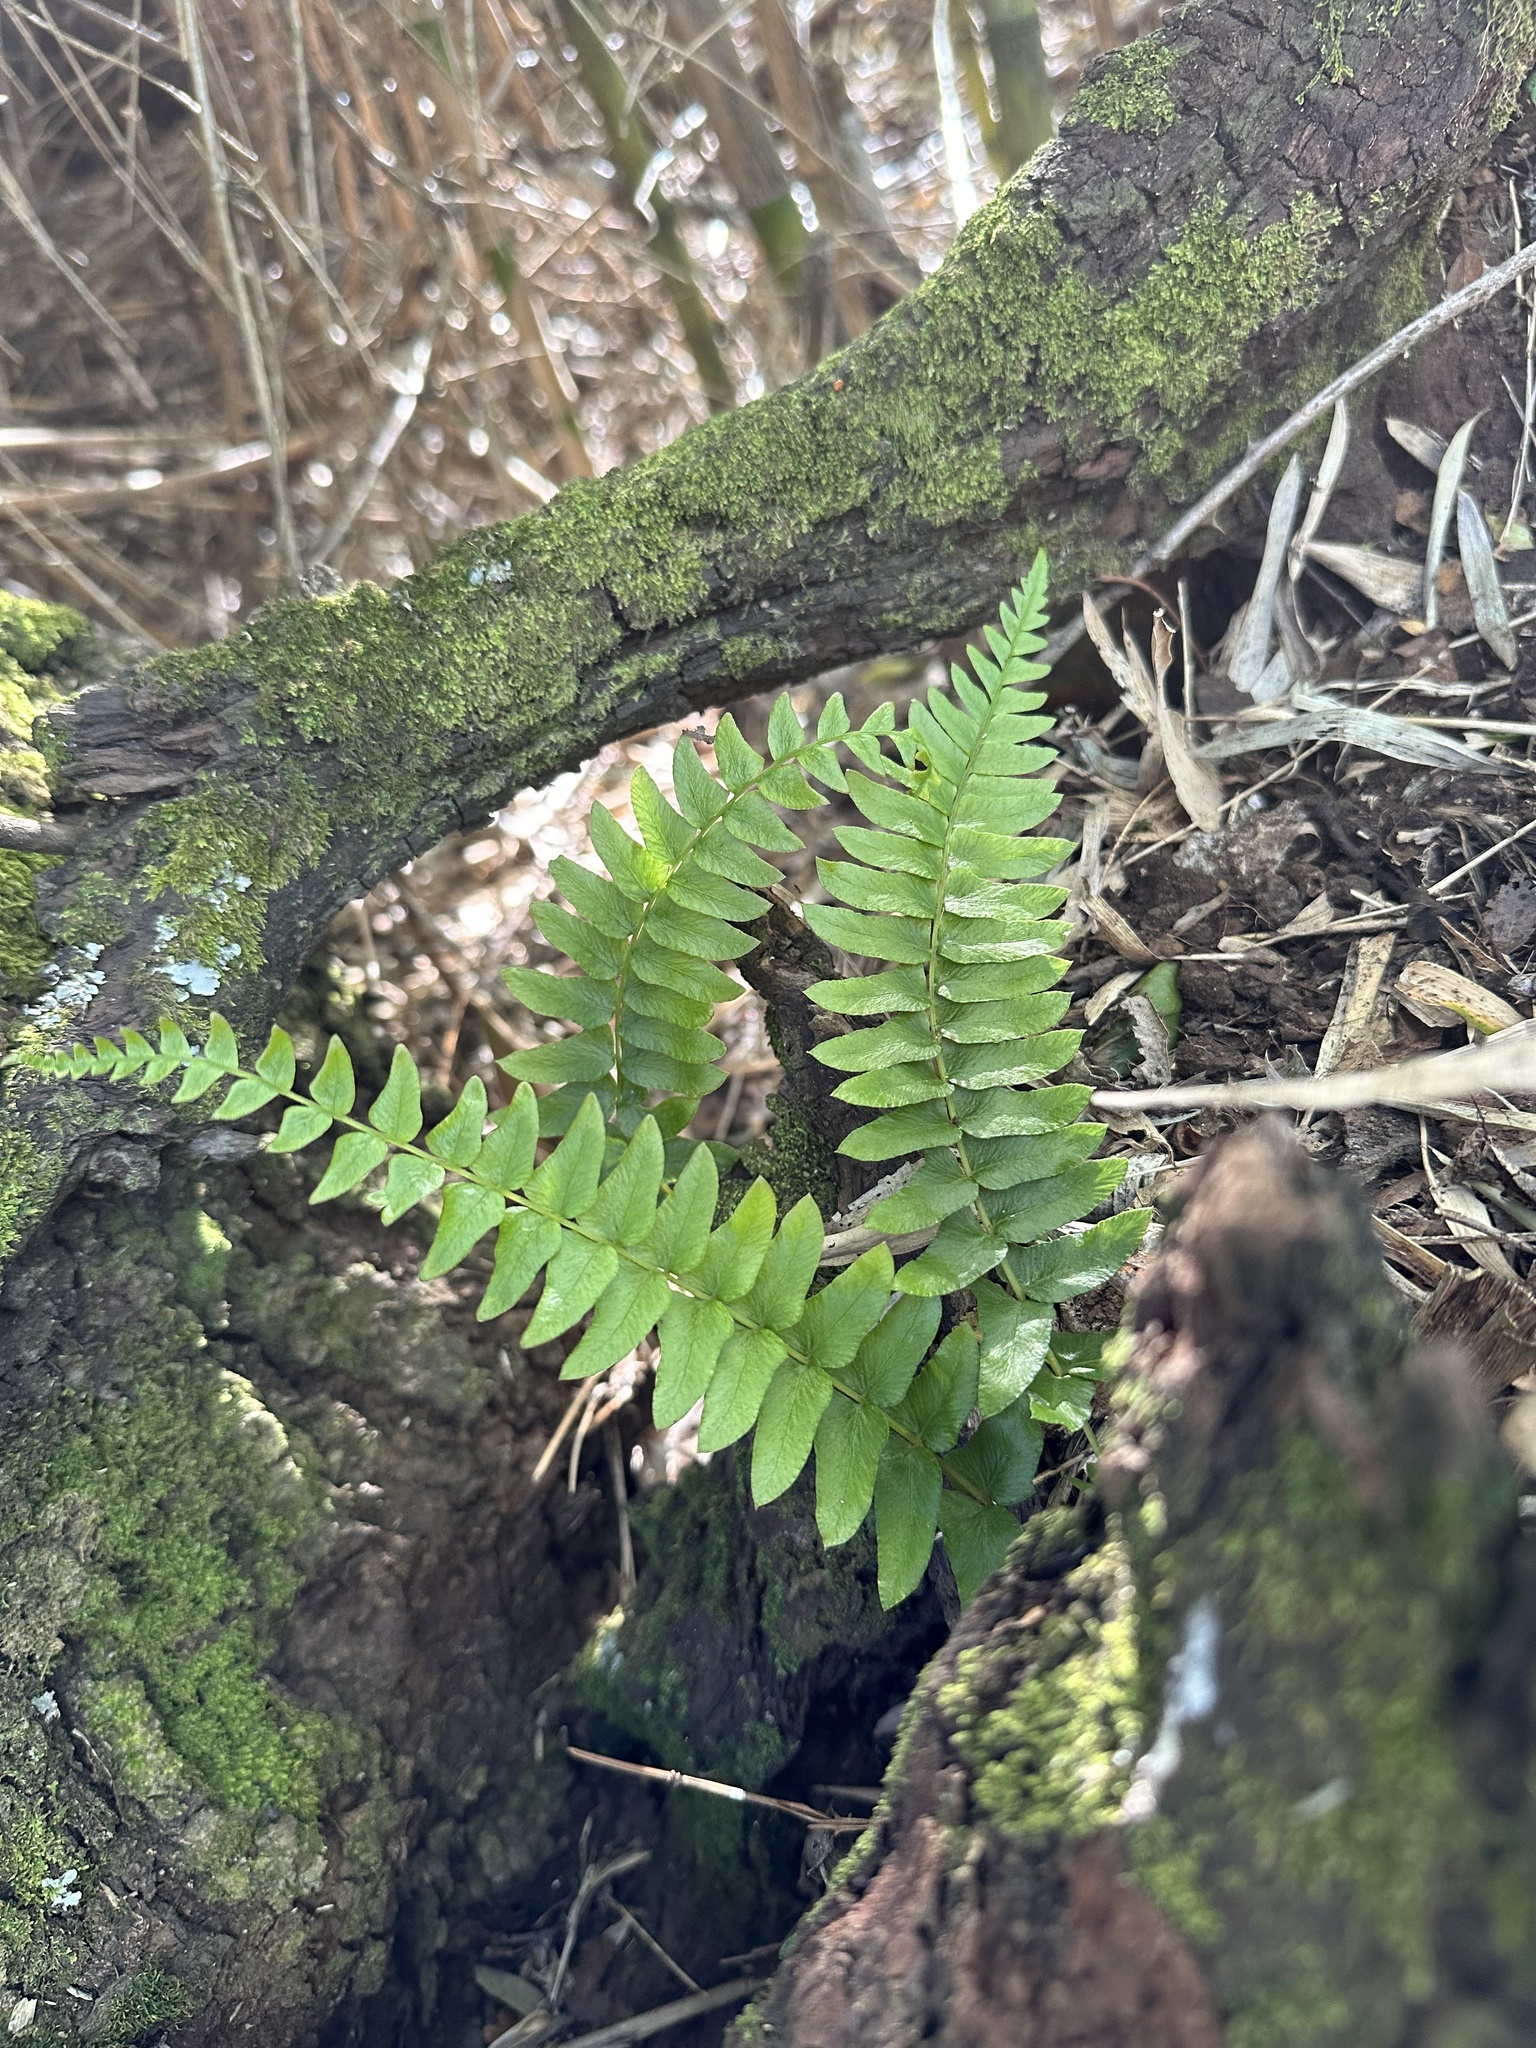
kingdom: Plantae
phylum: Tracheophyta
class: Polypodiopsida
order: Polypodiales
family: Blechnaceae
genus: Blechnum
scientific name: Blechnum hastatum
